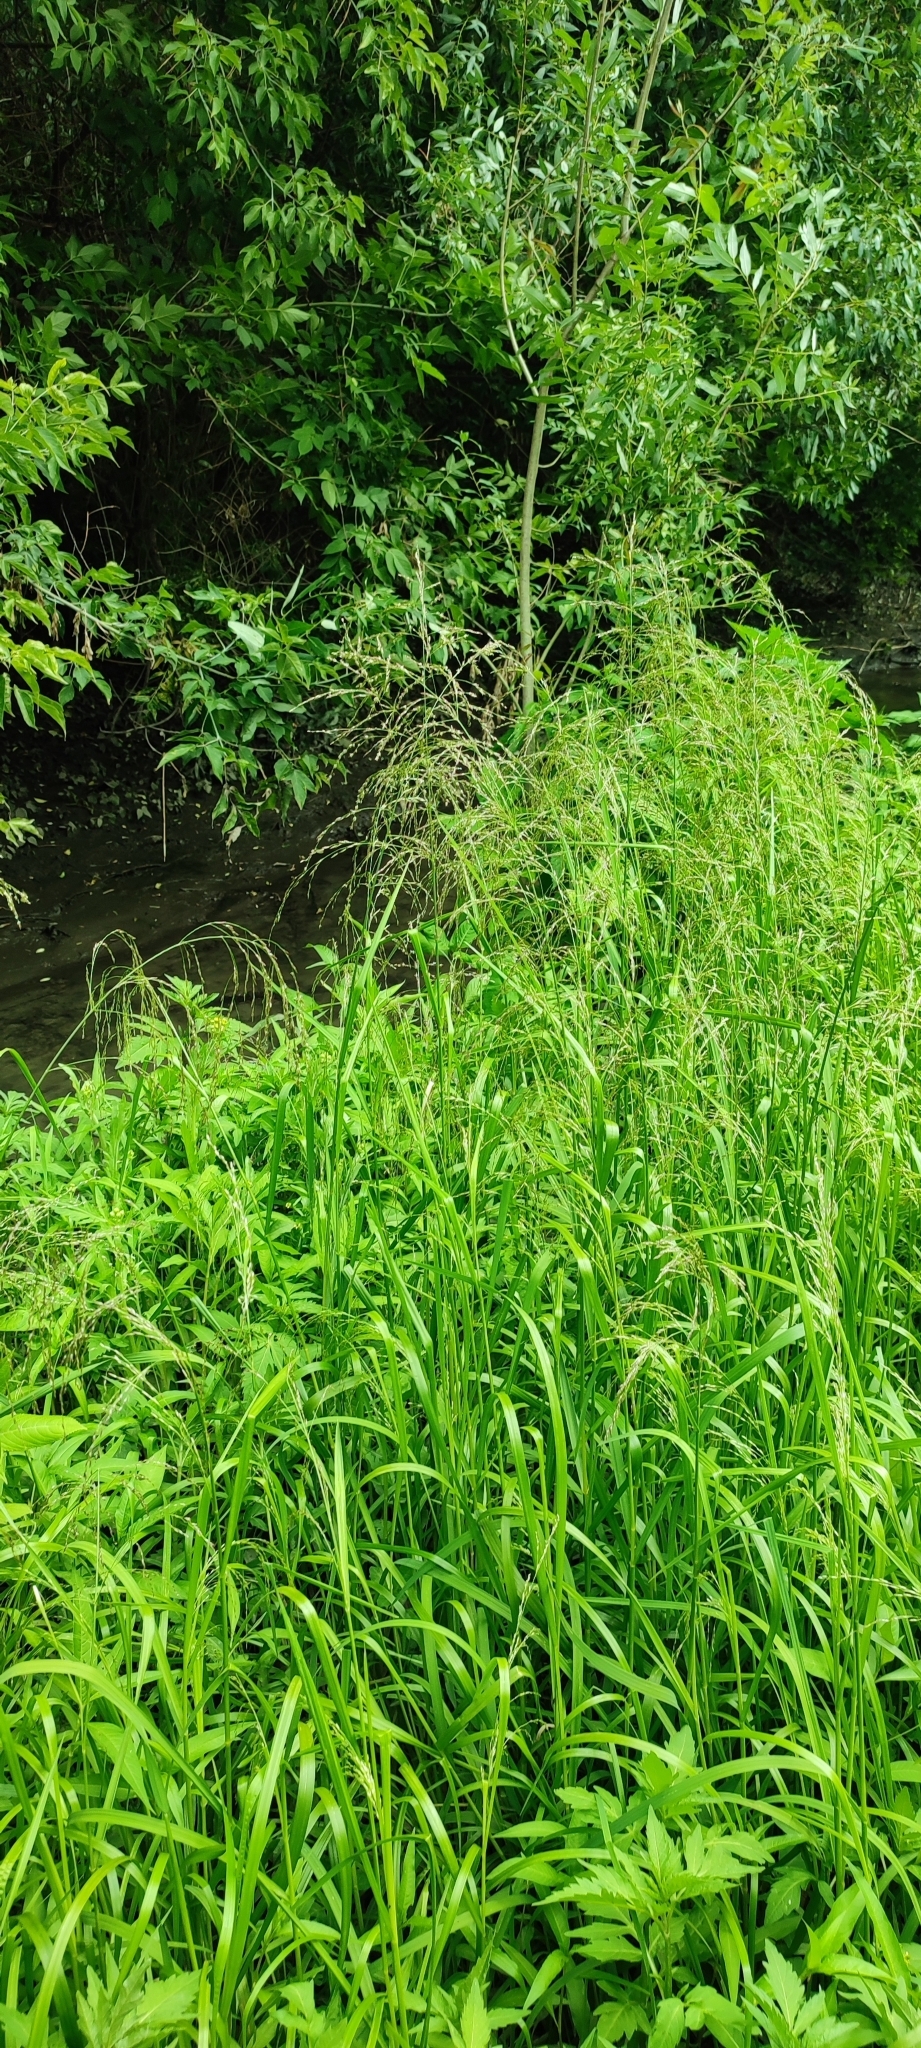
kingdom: Plantae
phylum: Tracheophyta
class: Liliopsida
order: Poales
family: Poaceae
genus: Glyceria
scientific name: Glyceria maxima
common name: Reed mannagrass
